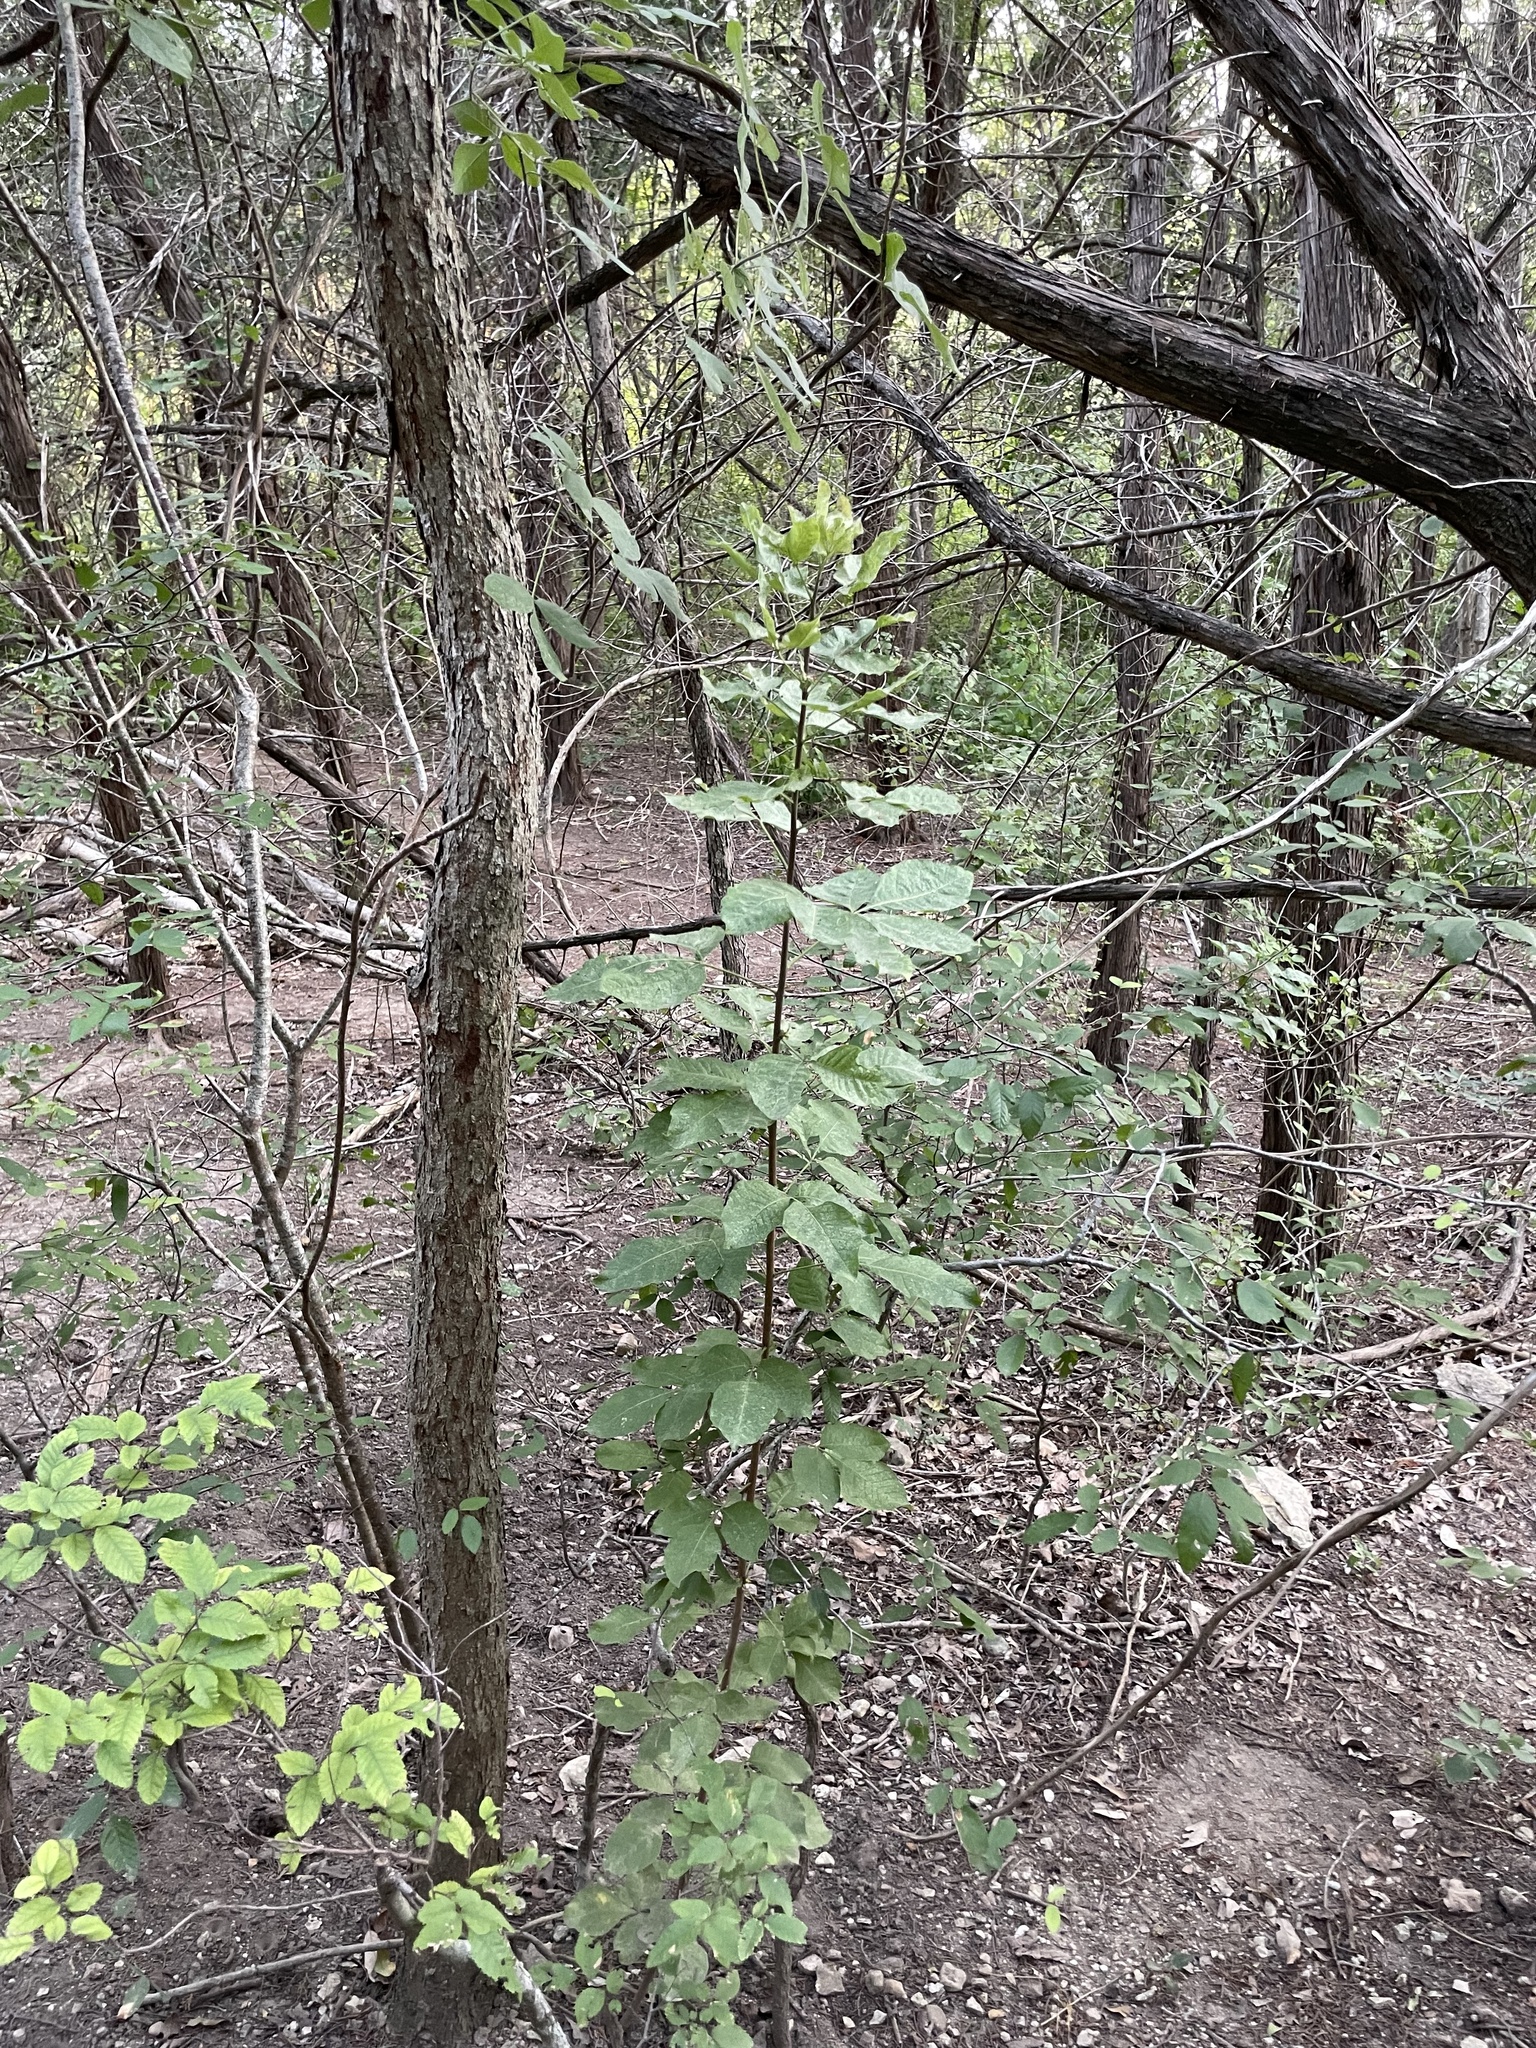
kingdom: Plantae
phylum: Tracheophyta
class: Magnoliopsida
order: Sapindales
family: Rutaceae
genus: Ptelea
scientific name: Ptelea trifoliata
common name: Common hop-tree
